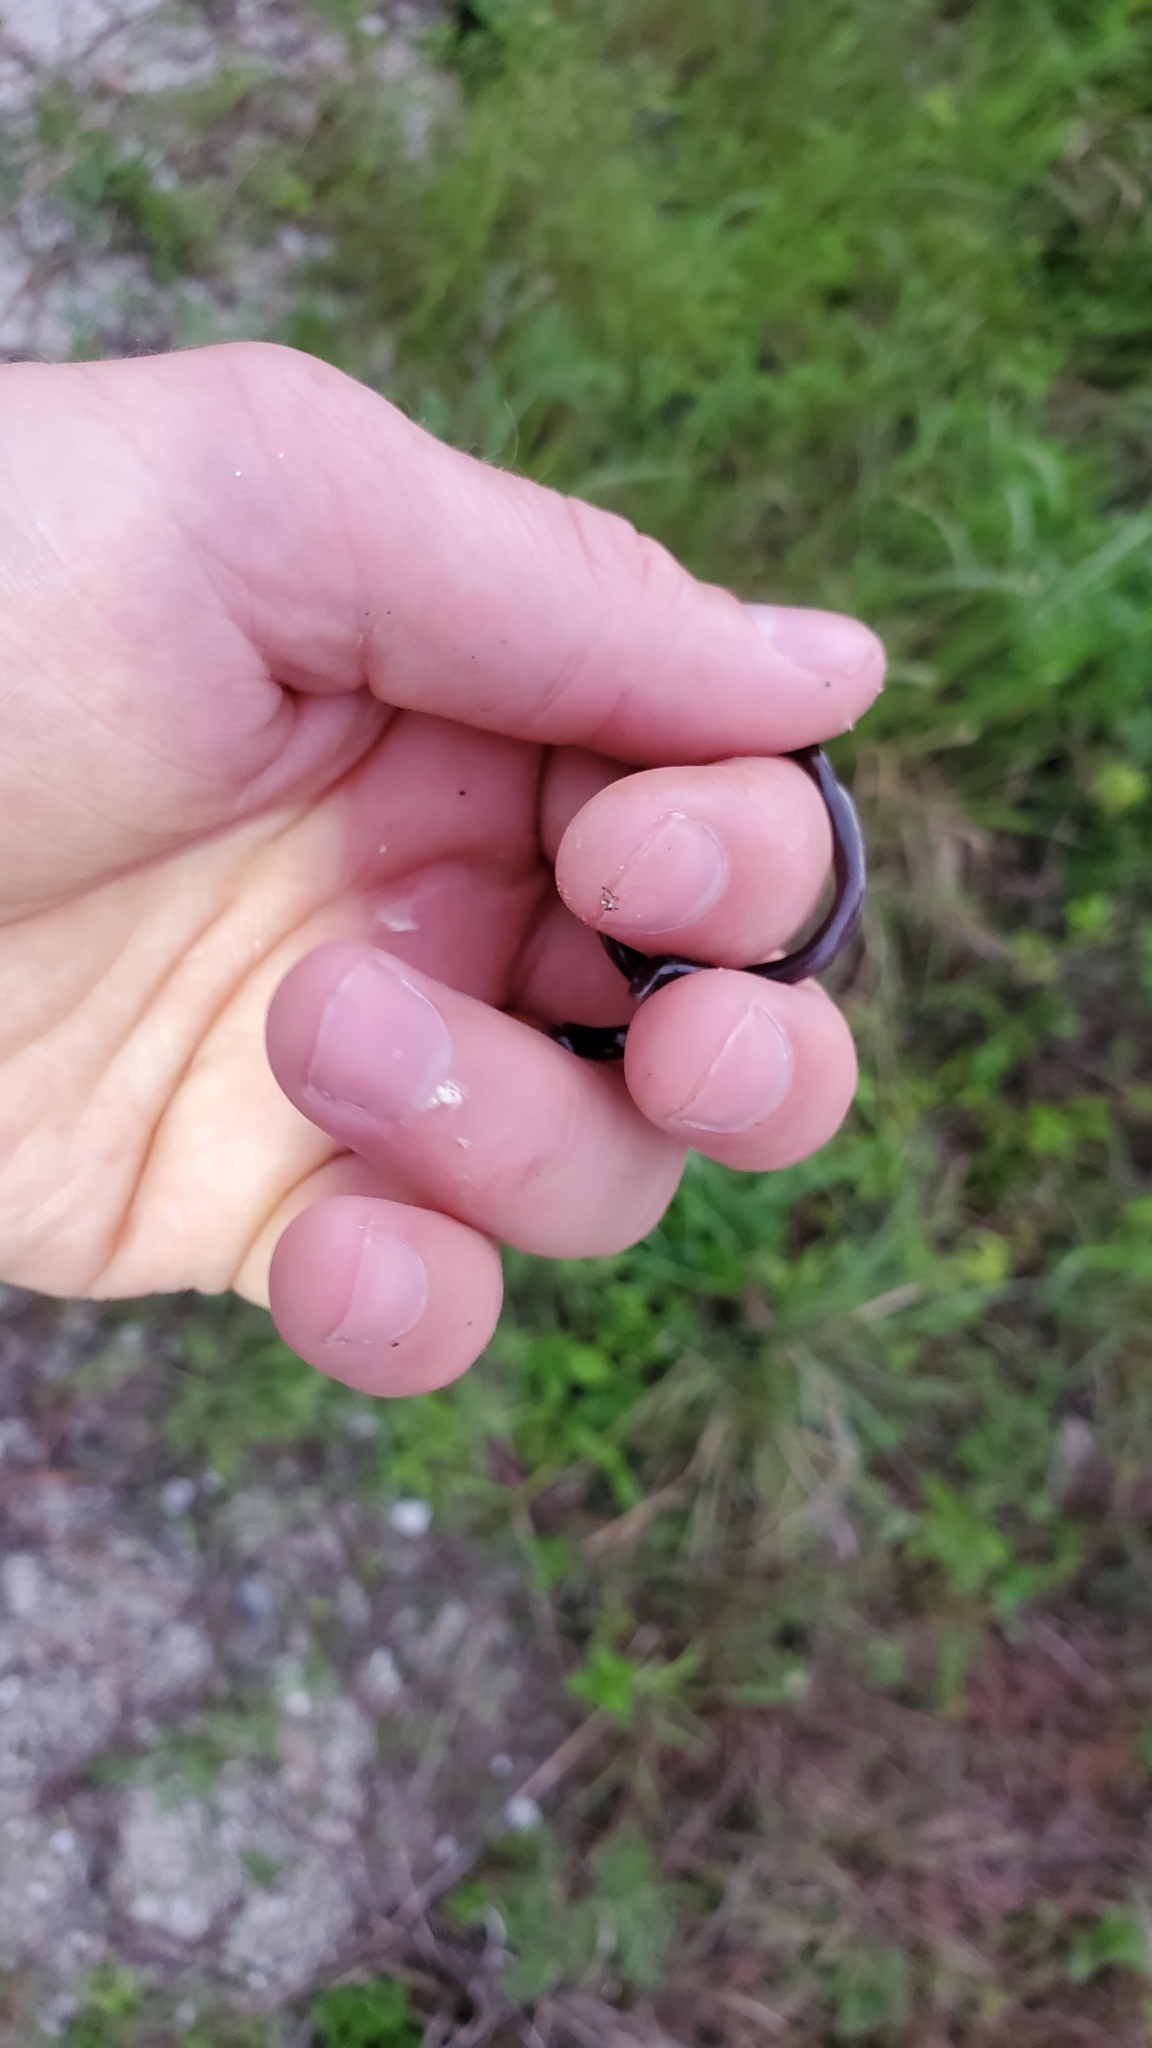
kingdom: Animalia
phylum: Chordata
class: Squamata
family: Typhlopidae
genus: Indotyphlops
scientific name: Indotyphlops braminus
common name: Brahminy blindsnake
